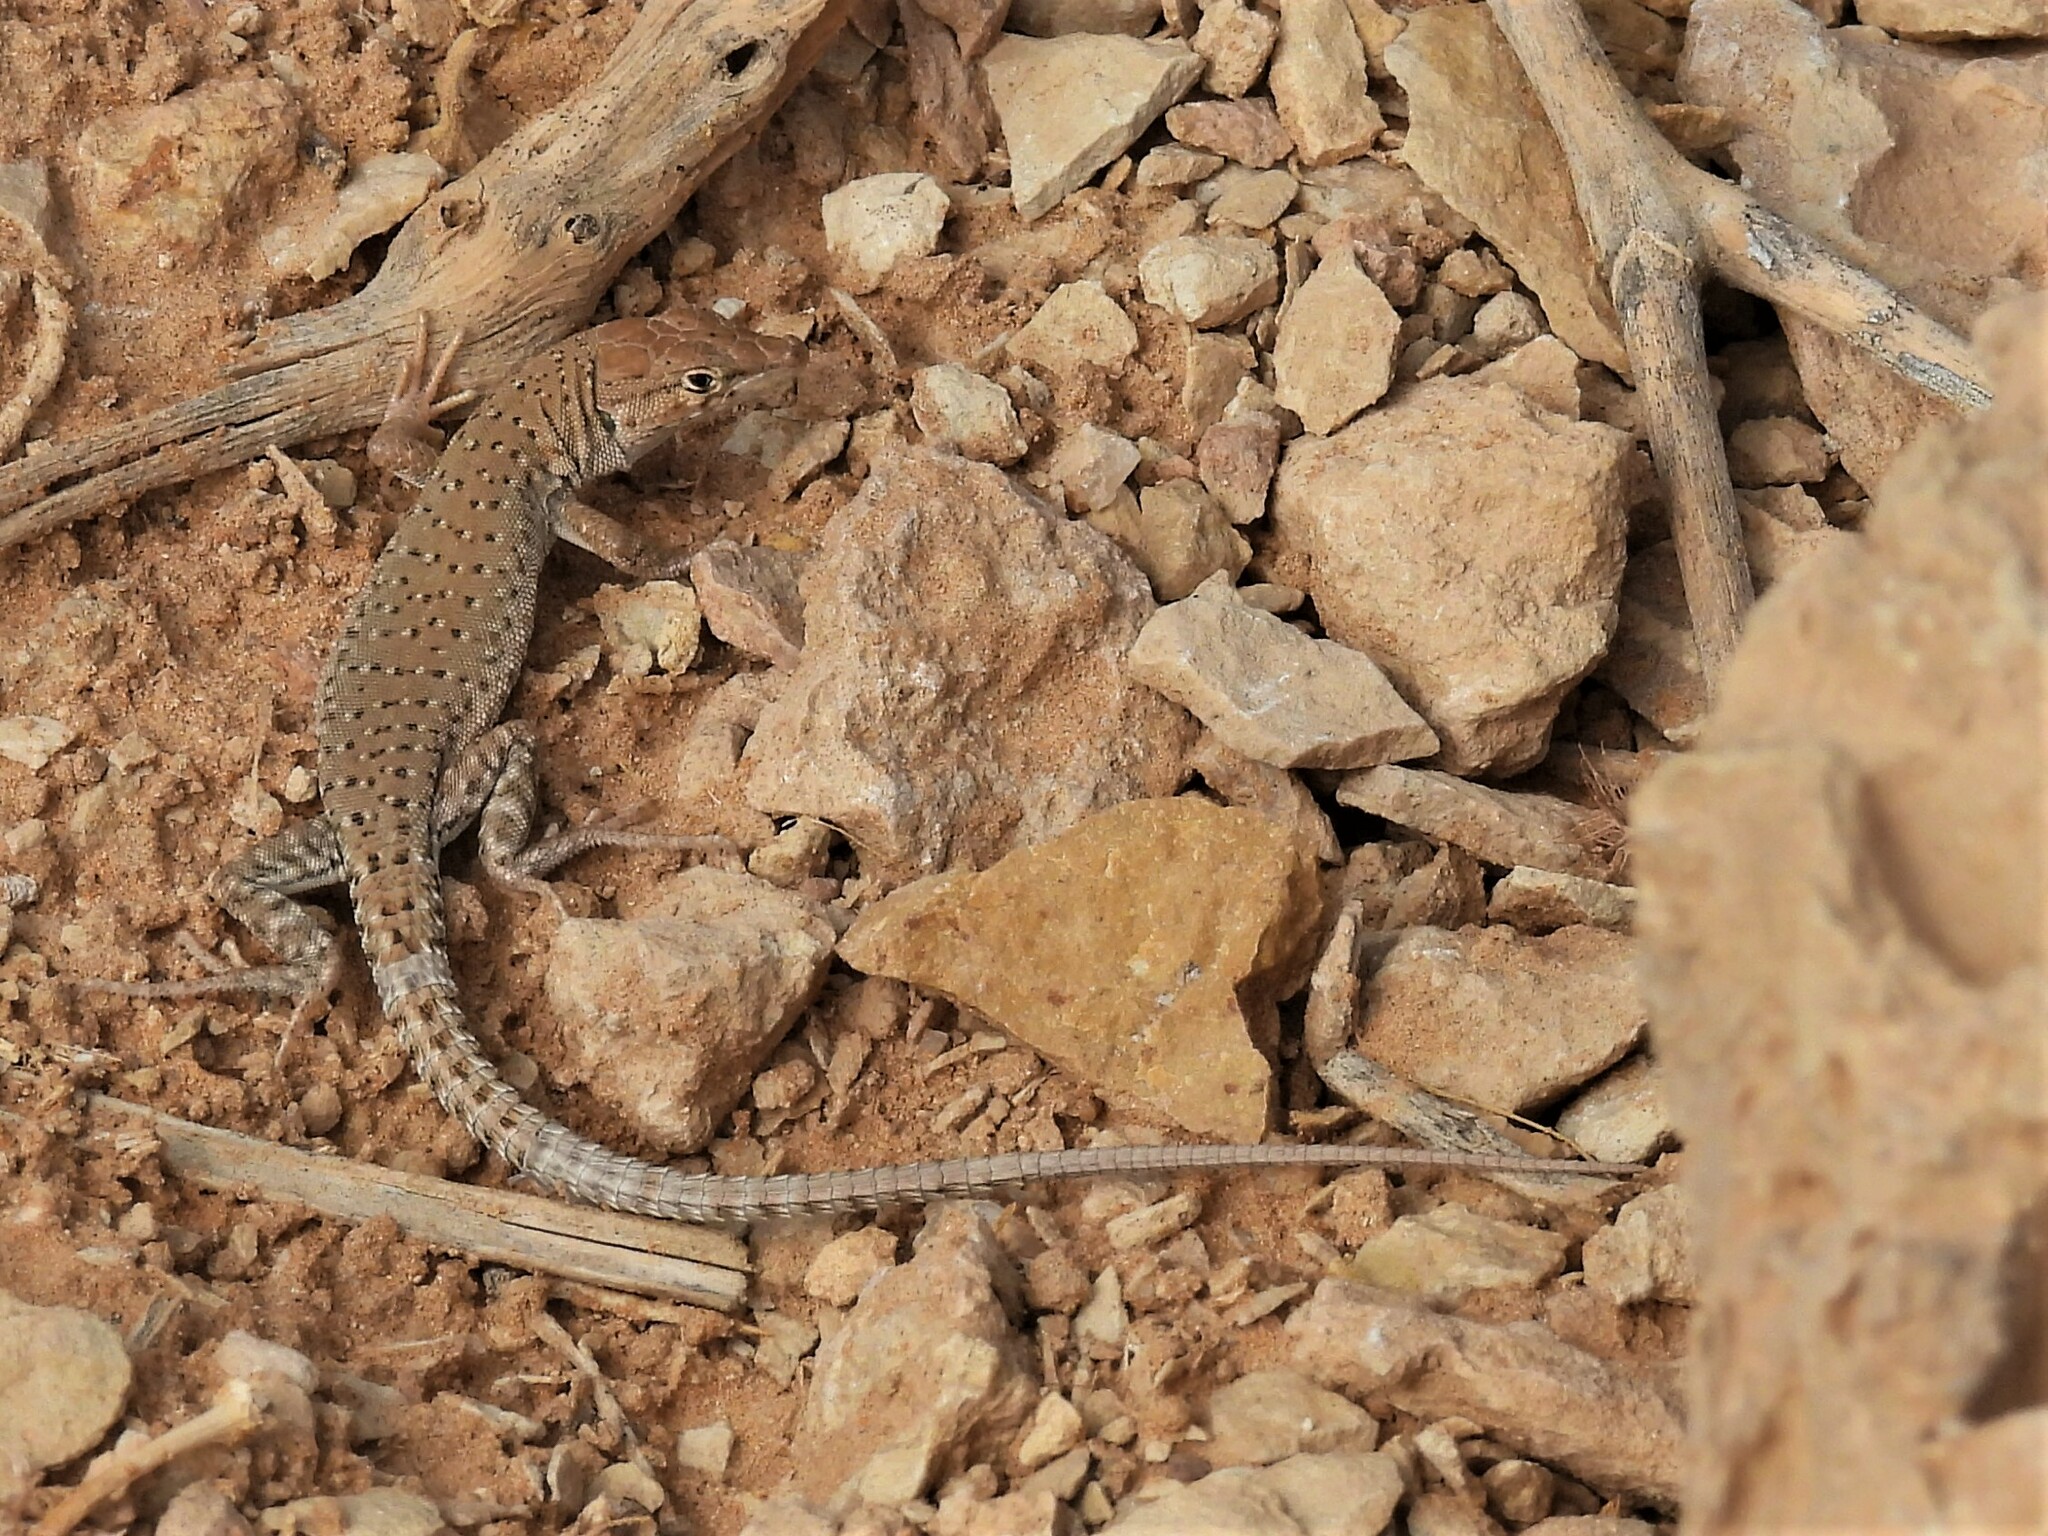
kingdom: Animalia
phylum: Chordata
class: Squamata
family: Lacertidae
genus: Mesalina
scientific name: Mesalina guttulata
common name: Desert lacerta
